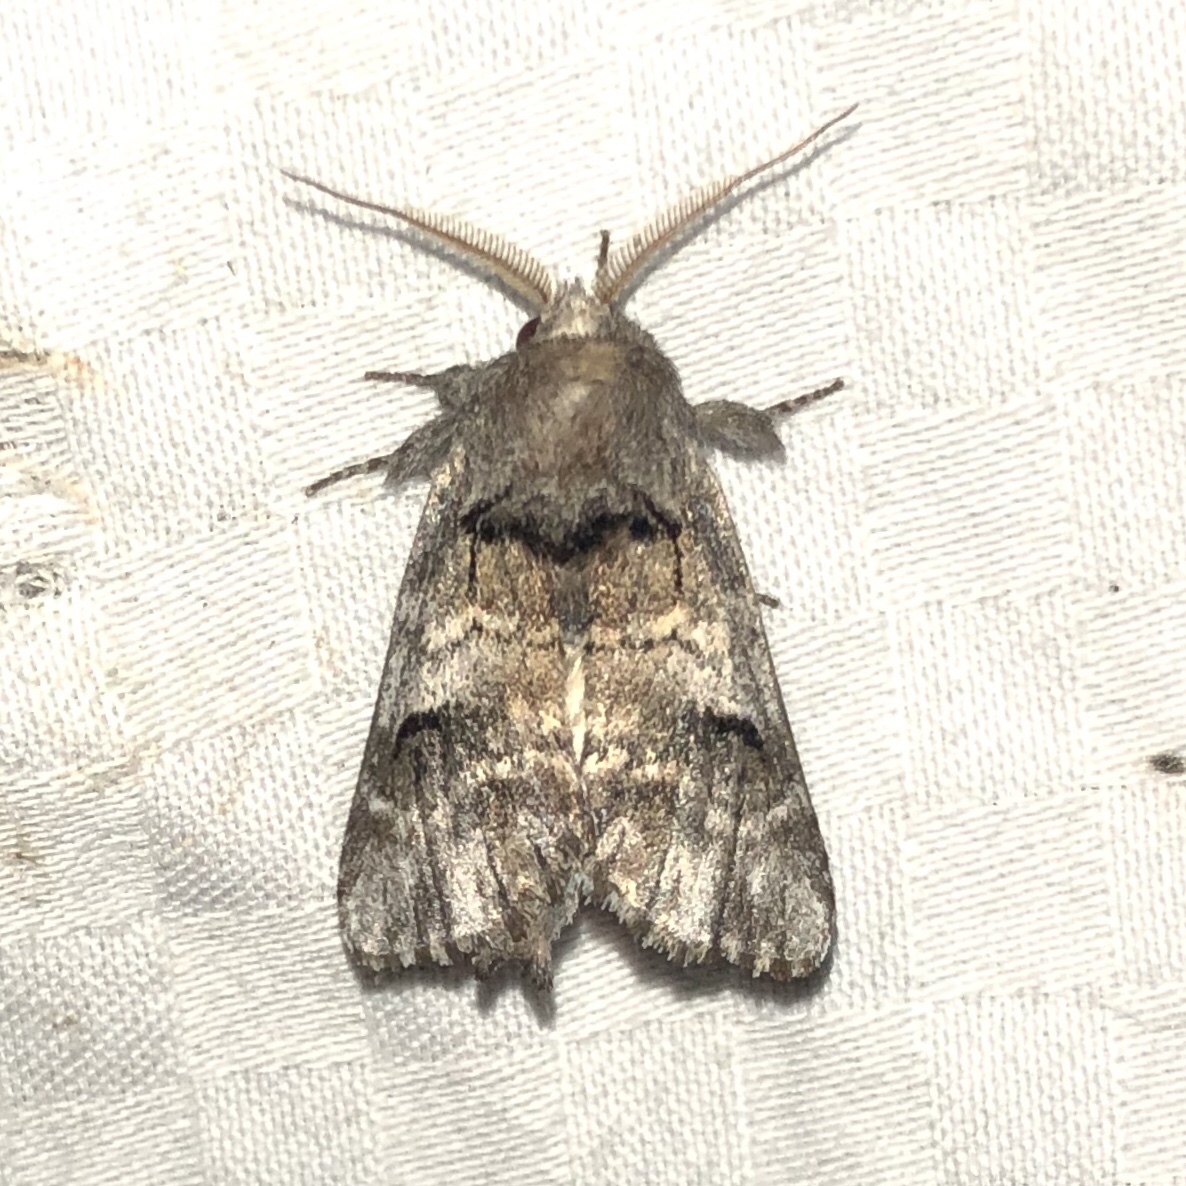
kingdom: Animalia
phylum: Arthropoda
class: Insecta
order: Lepidoptera
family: Notodontidae
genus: Schizura
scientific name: Schizura
